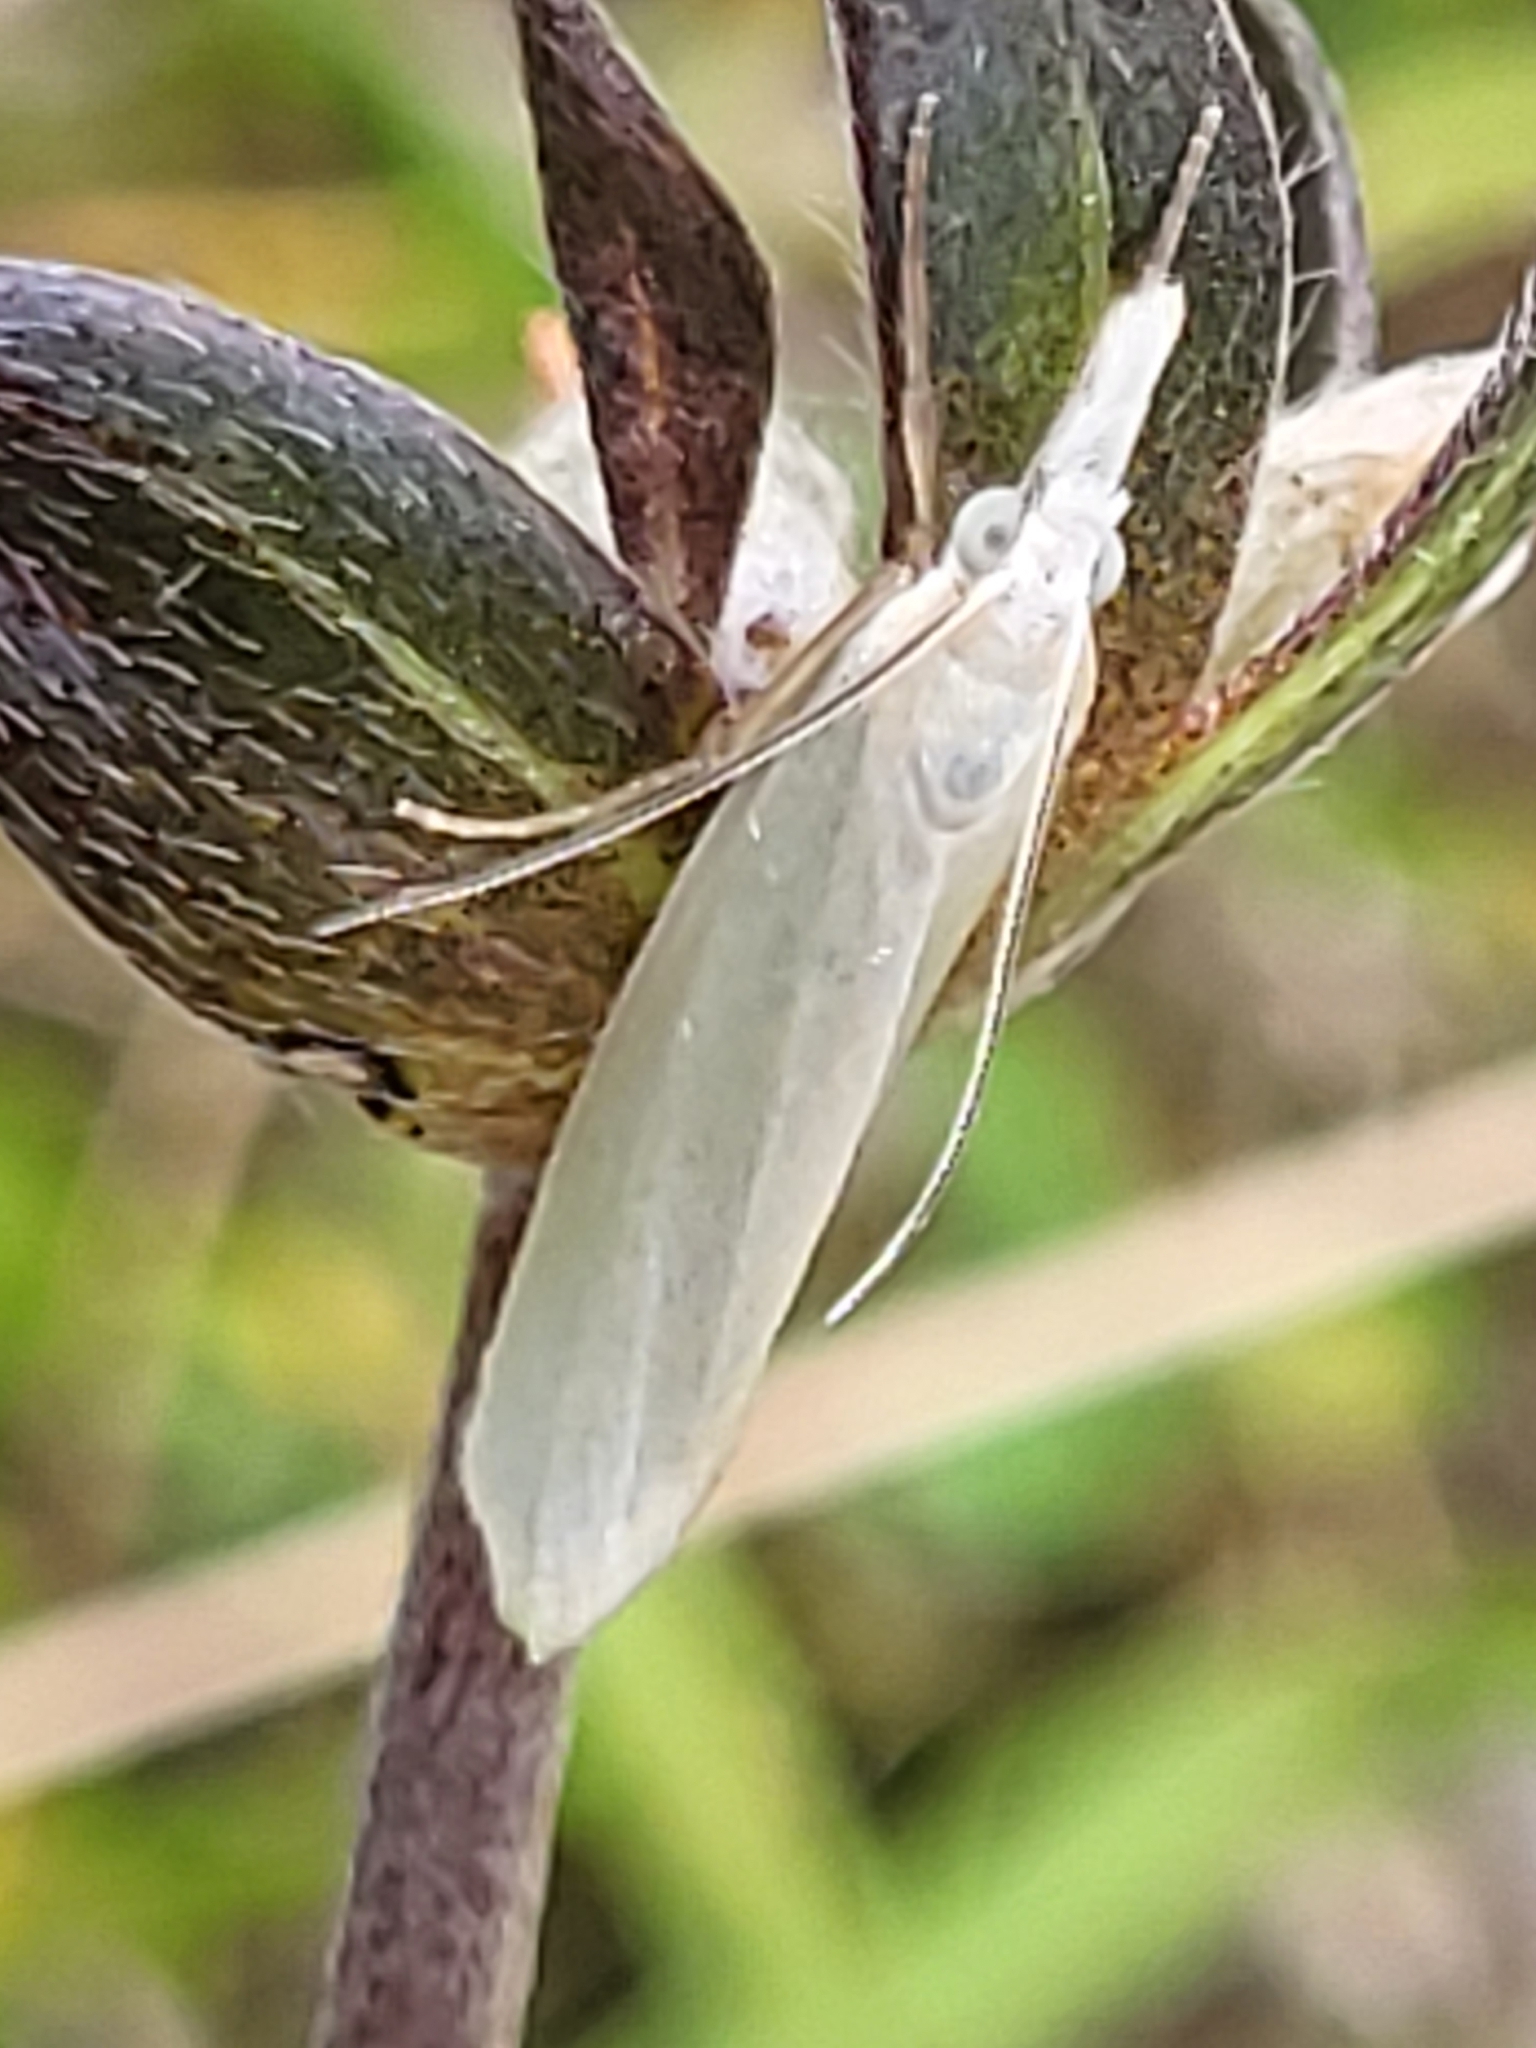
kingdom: Animalia
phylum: Arthropoda
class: Insecta
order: Lepidoptera
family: Crambidae
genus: Crambus
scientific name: Crambus perlellus
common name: Yellow satin veneer
